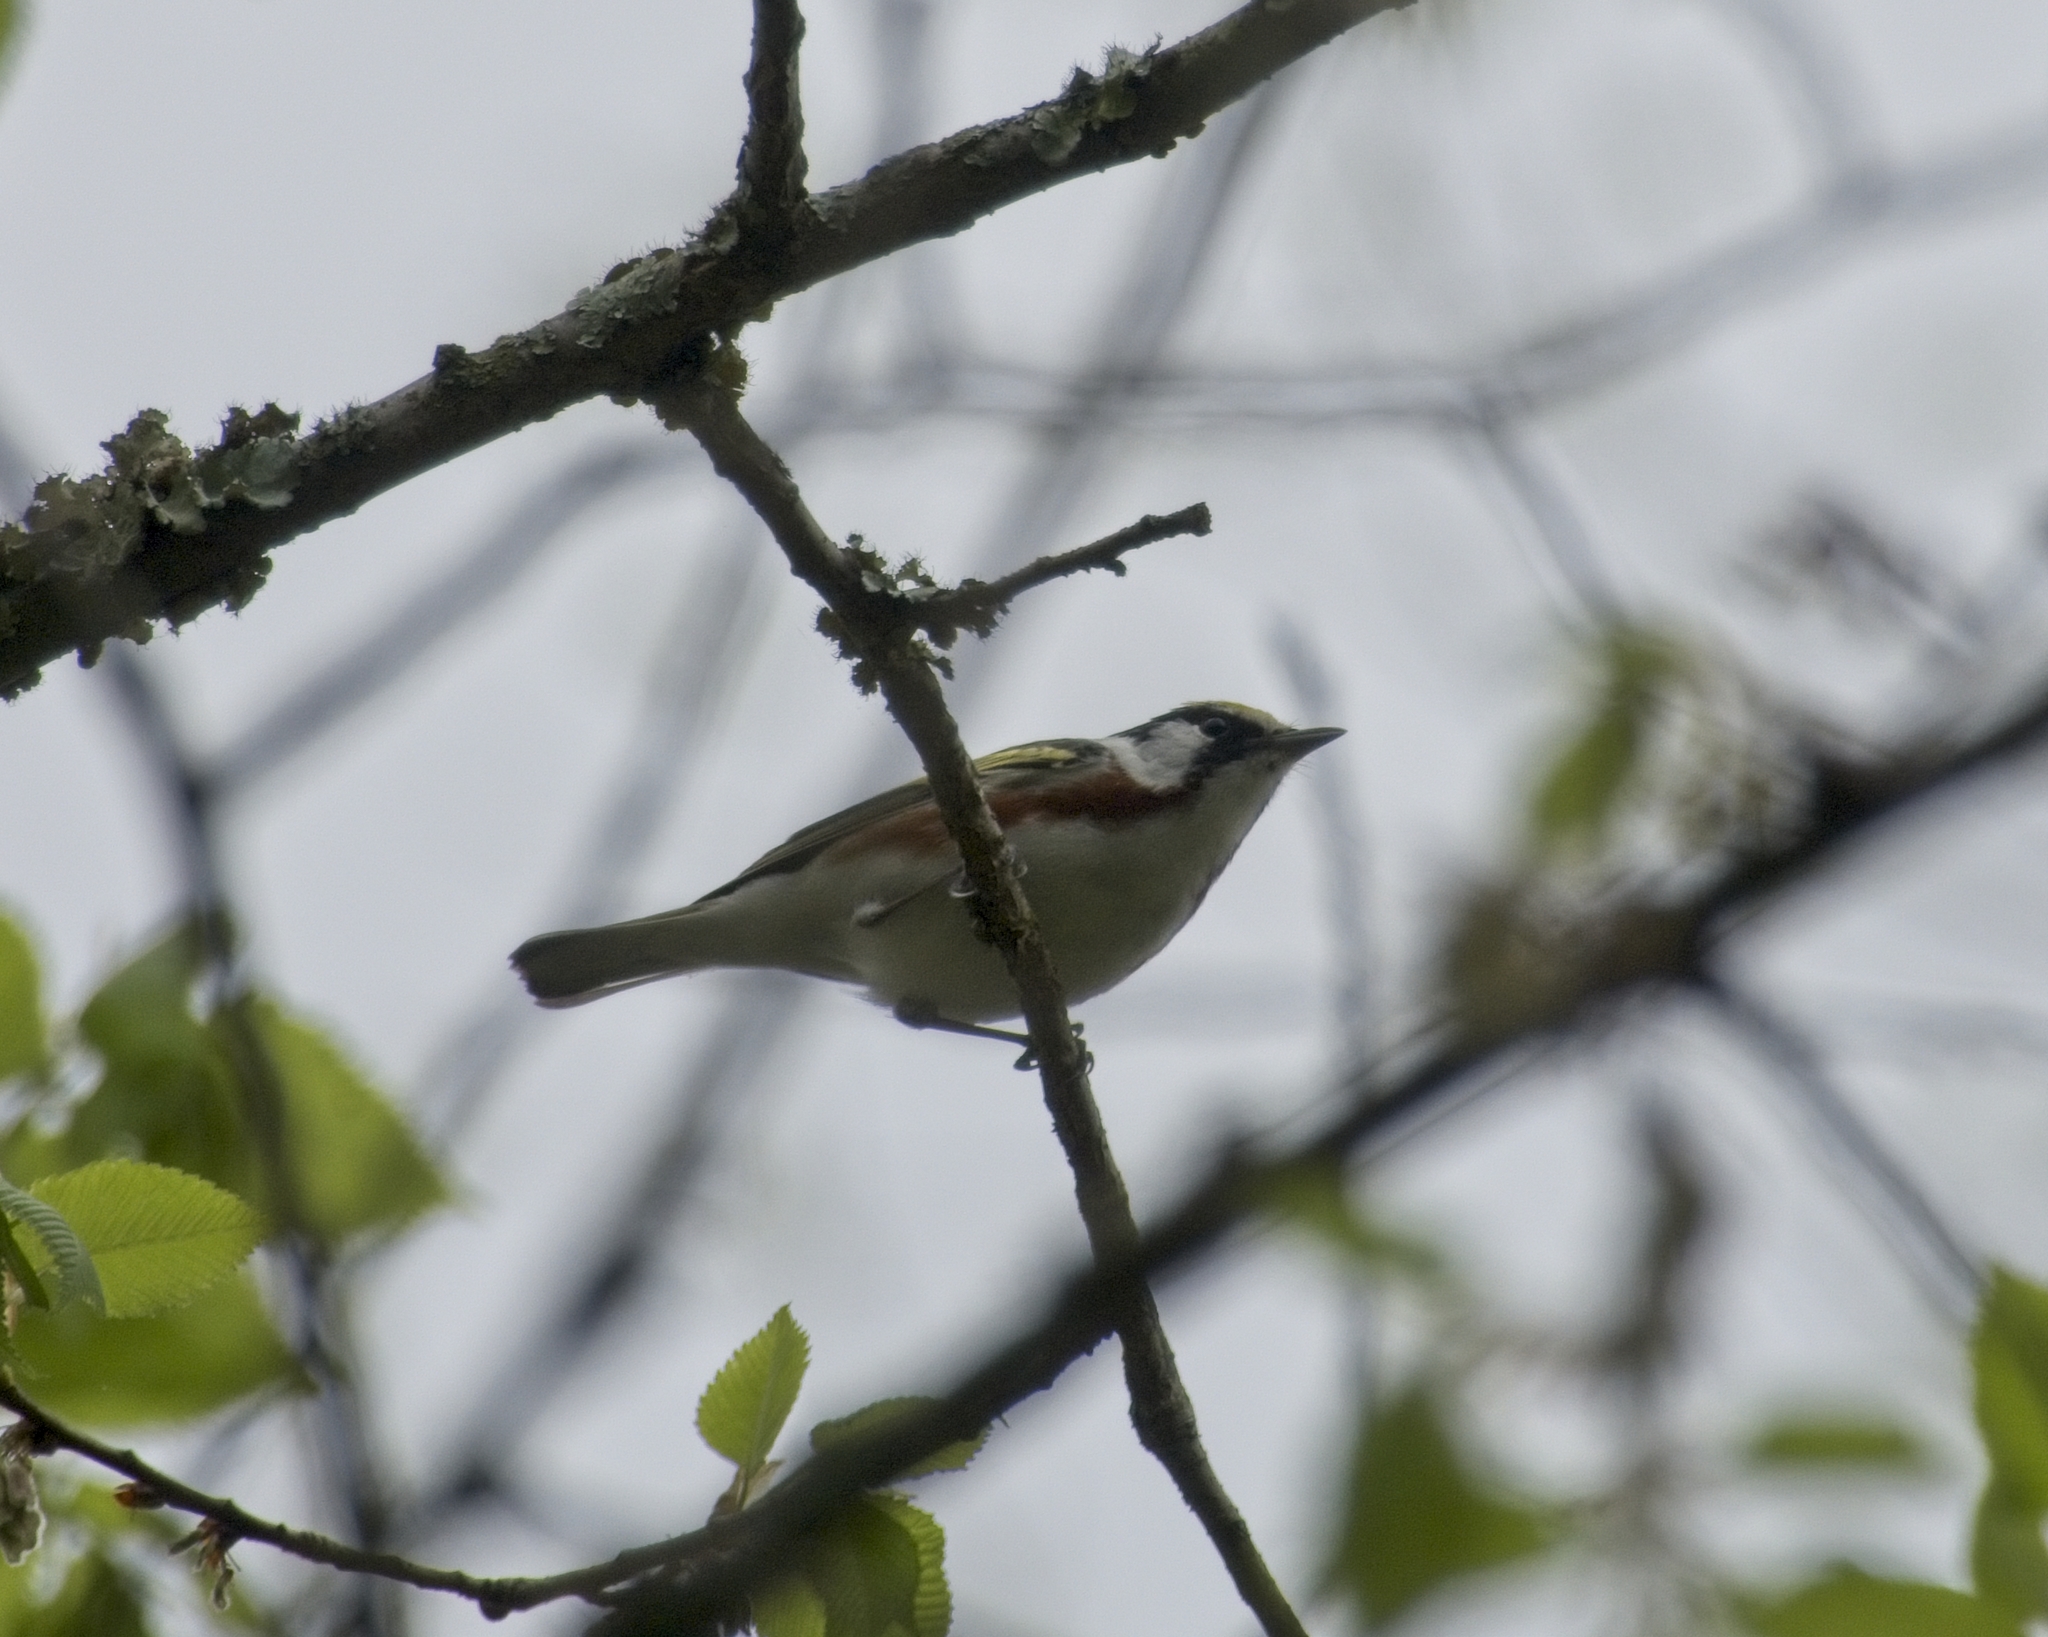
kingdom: Animalia
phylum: Chordata
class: Aves
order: Passeriformes
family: Parulidae
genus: Setophaga
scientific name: Setophaga pensylvanica
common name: Chestnut-sided warbler
